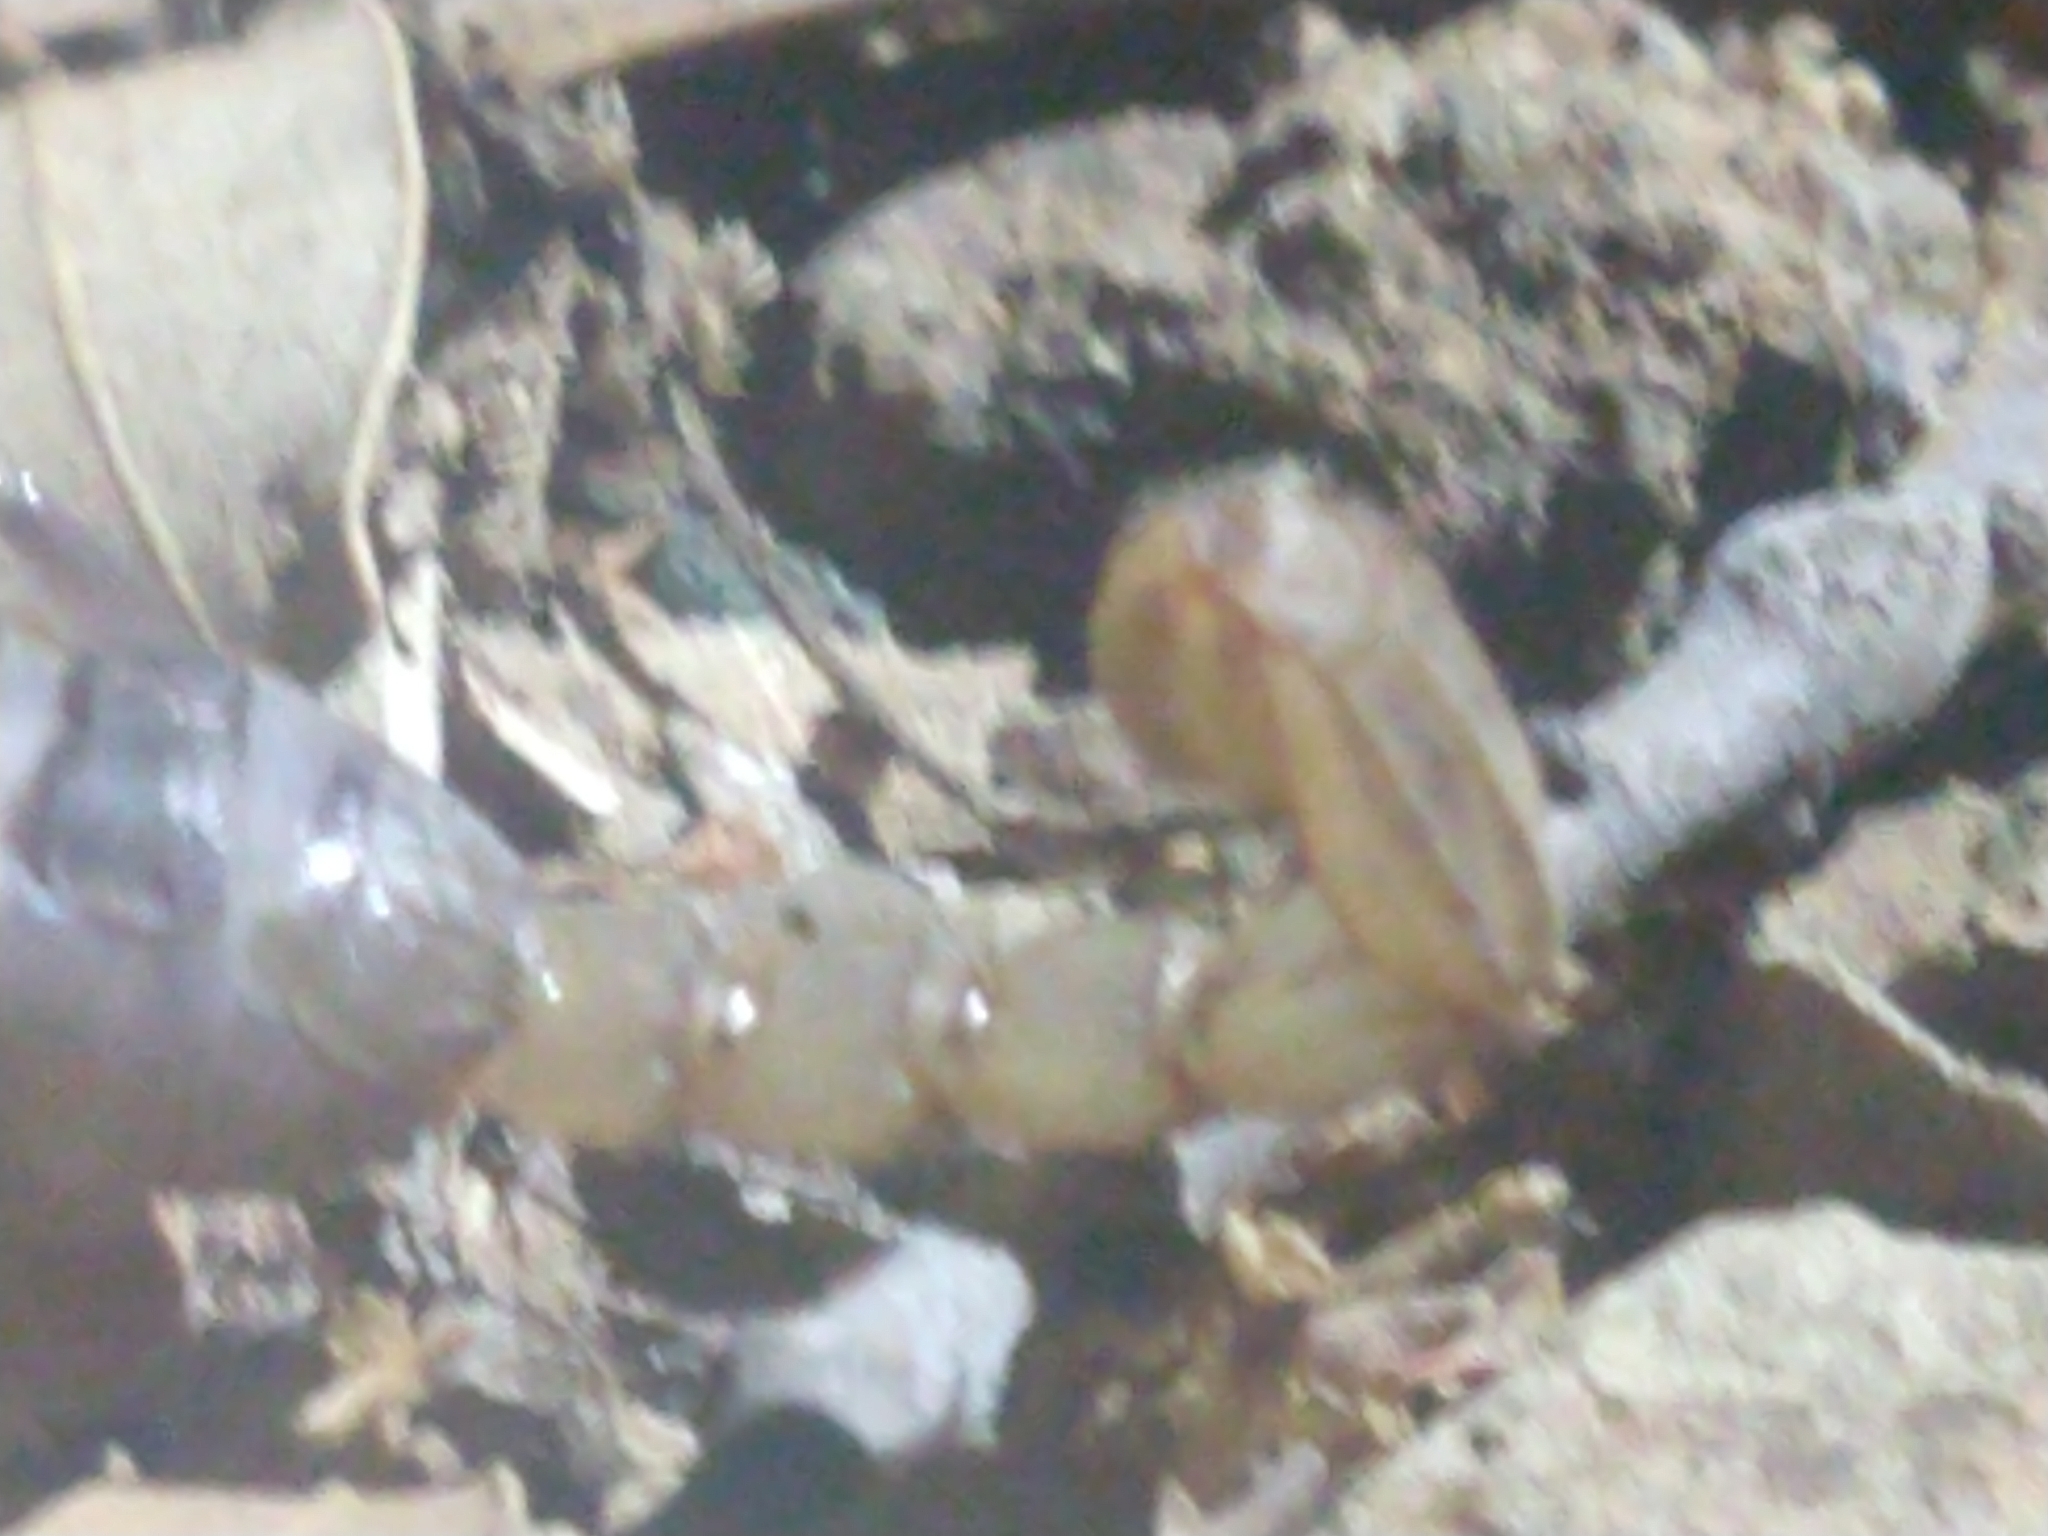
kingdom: Animalia
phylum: Arthropoda
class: Arachnida
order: Scorpiones
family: Vaejovidae
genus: Paruroctonus
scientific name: Paruroctonus silvestrii
